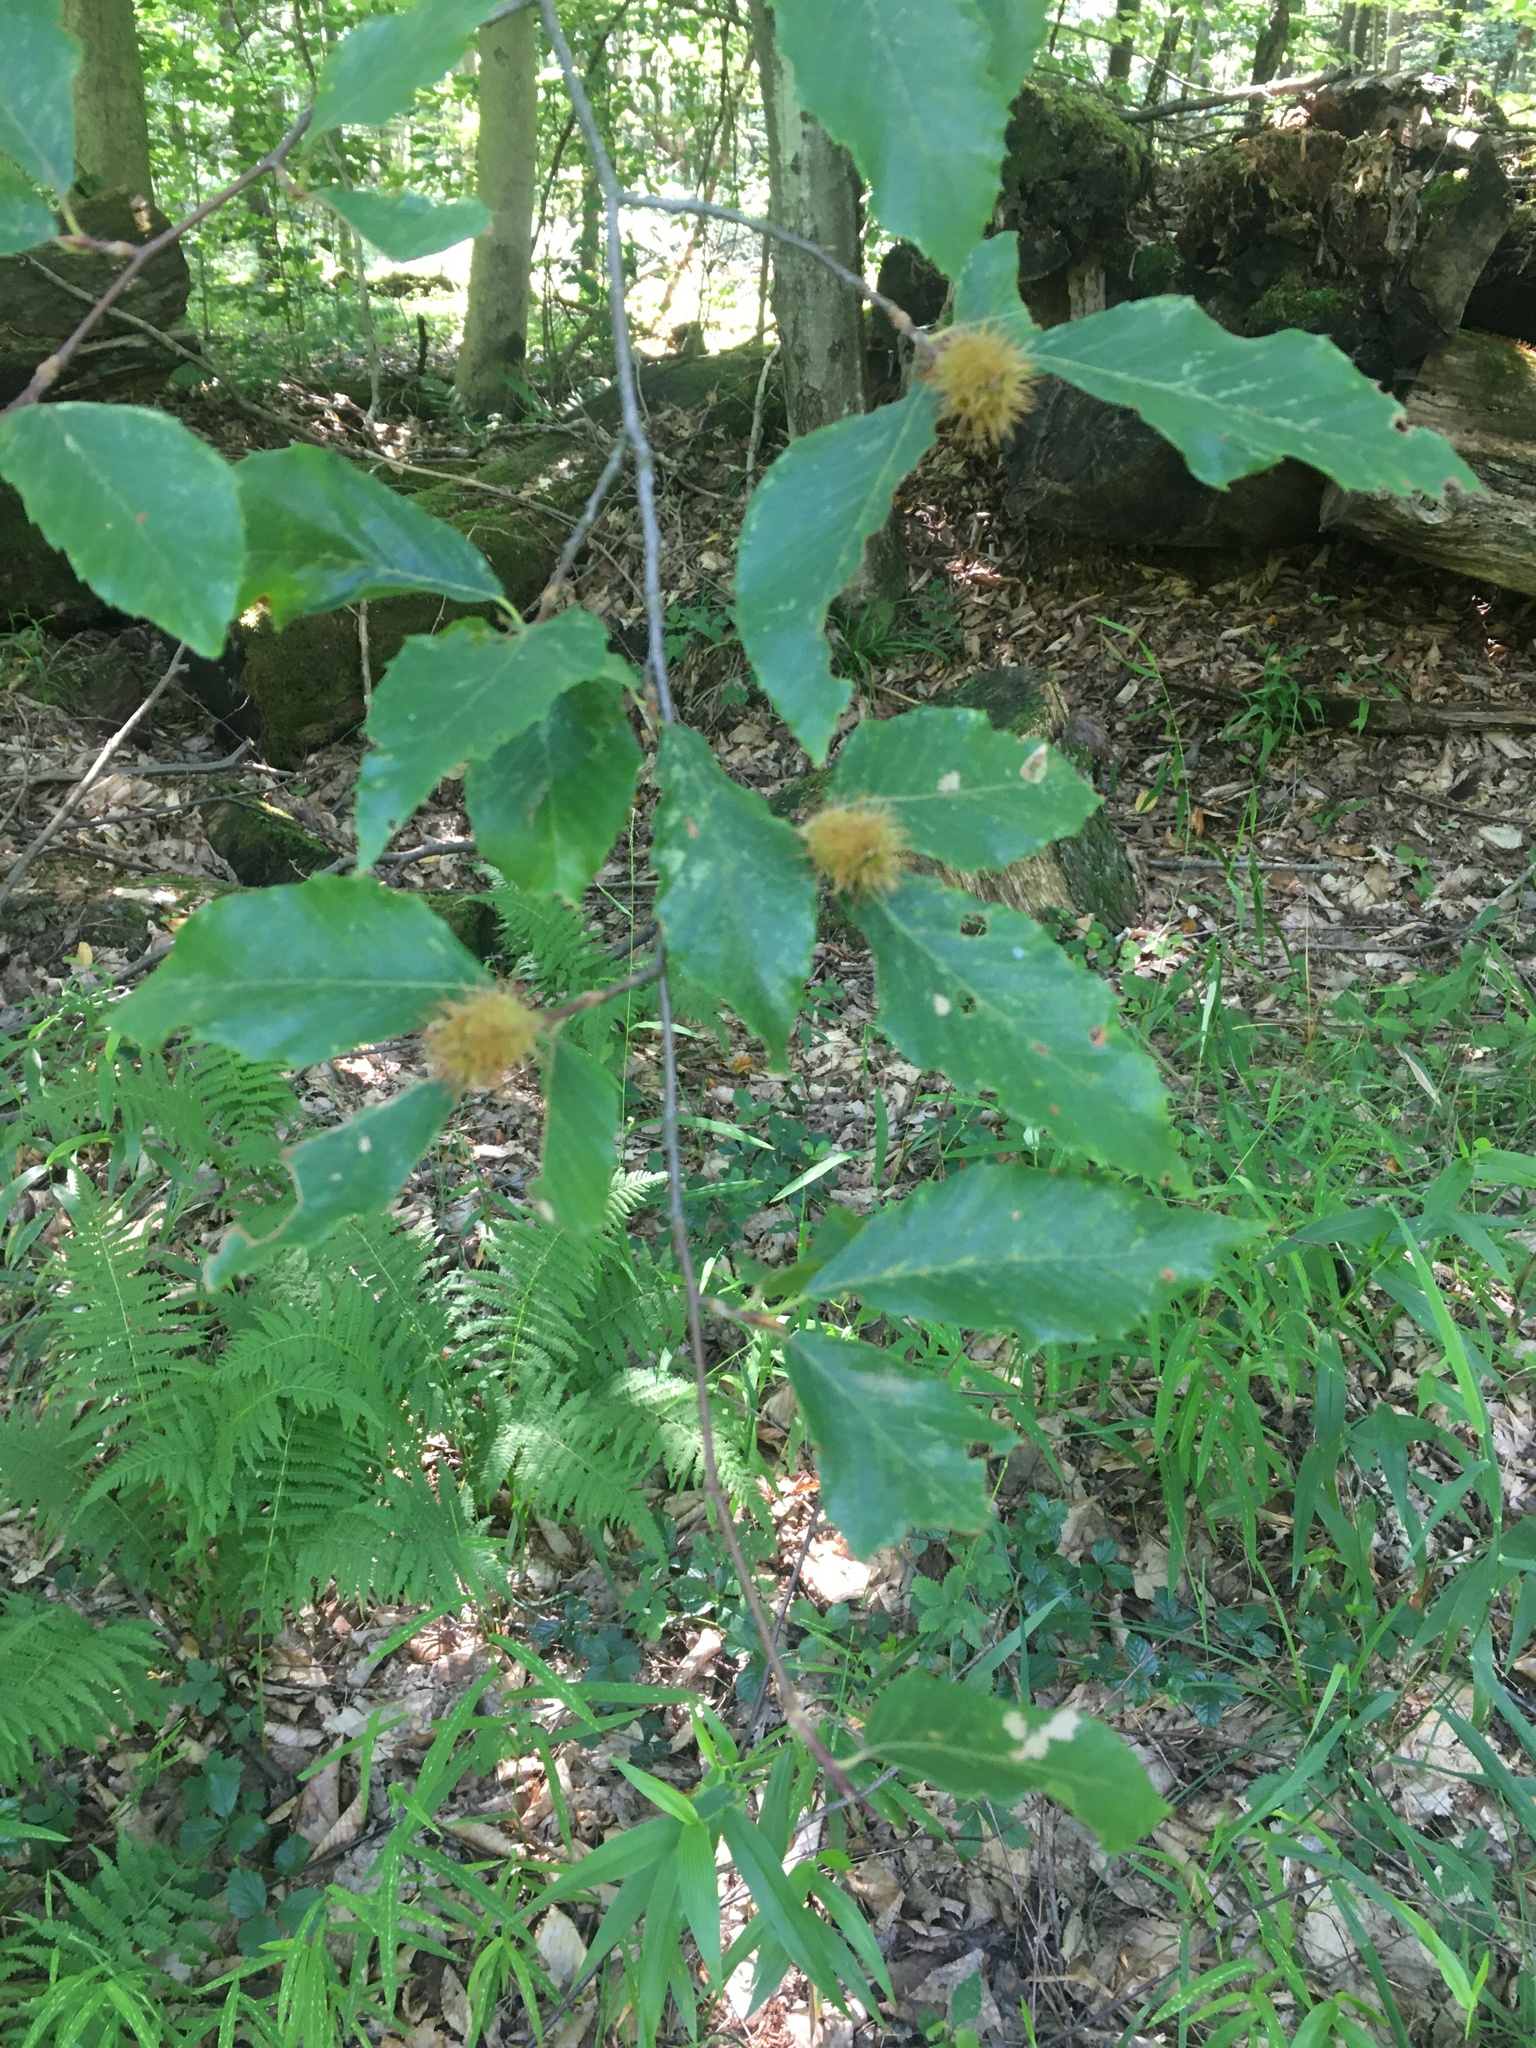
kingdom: Plantae
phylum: Tracheophyta
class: Magnoliopsida
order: Fagales
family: Fagaceae
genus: Fagus
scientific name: Fagus grandifolia
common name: American beech
